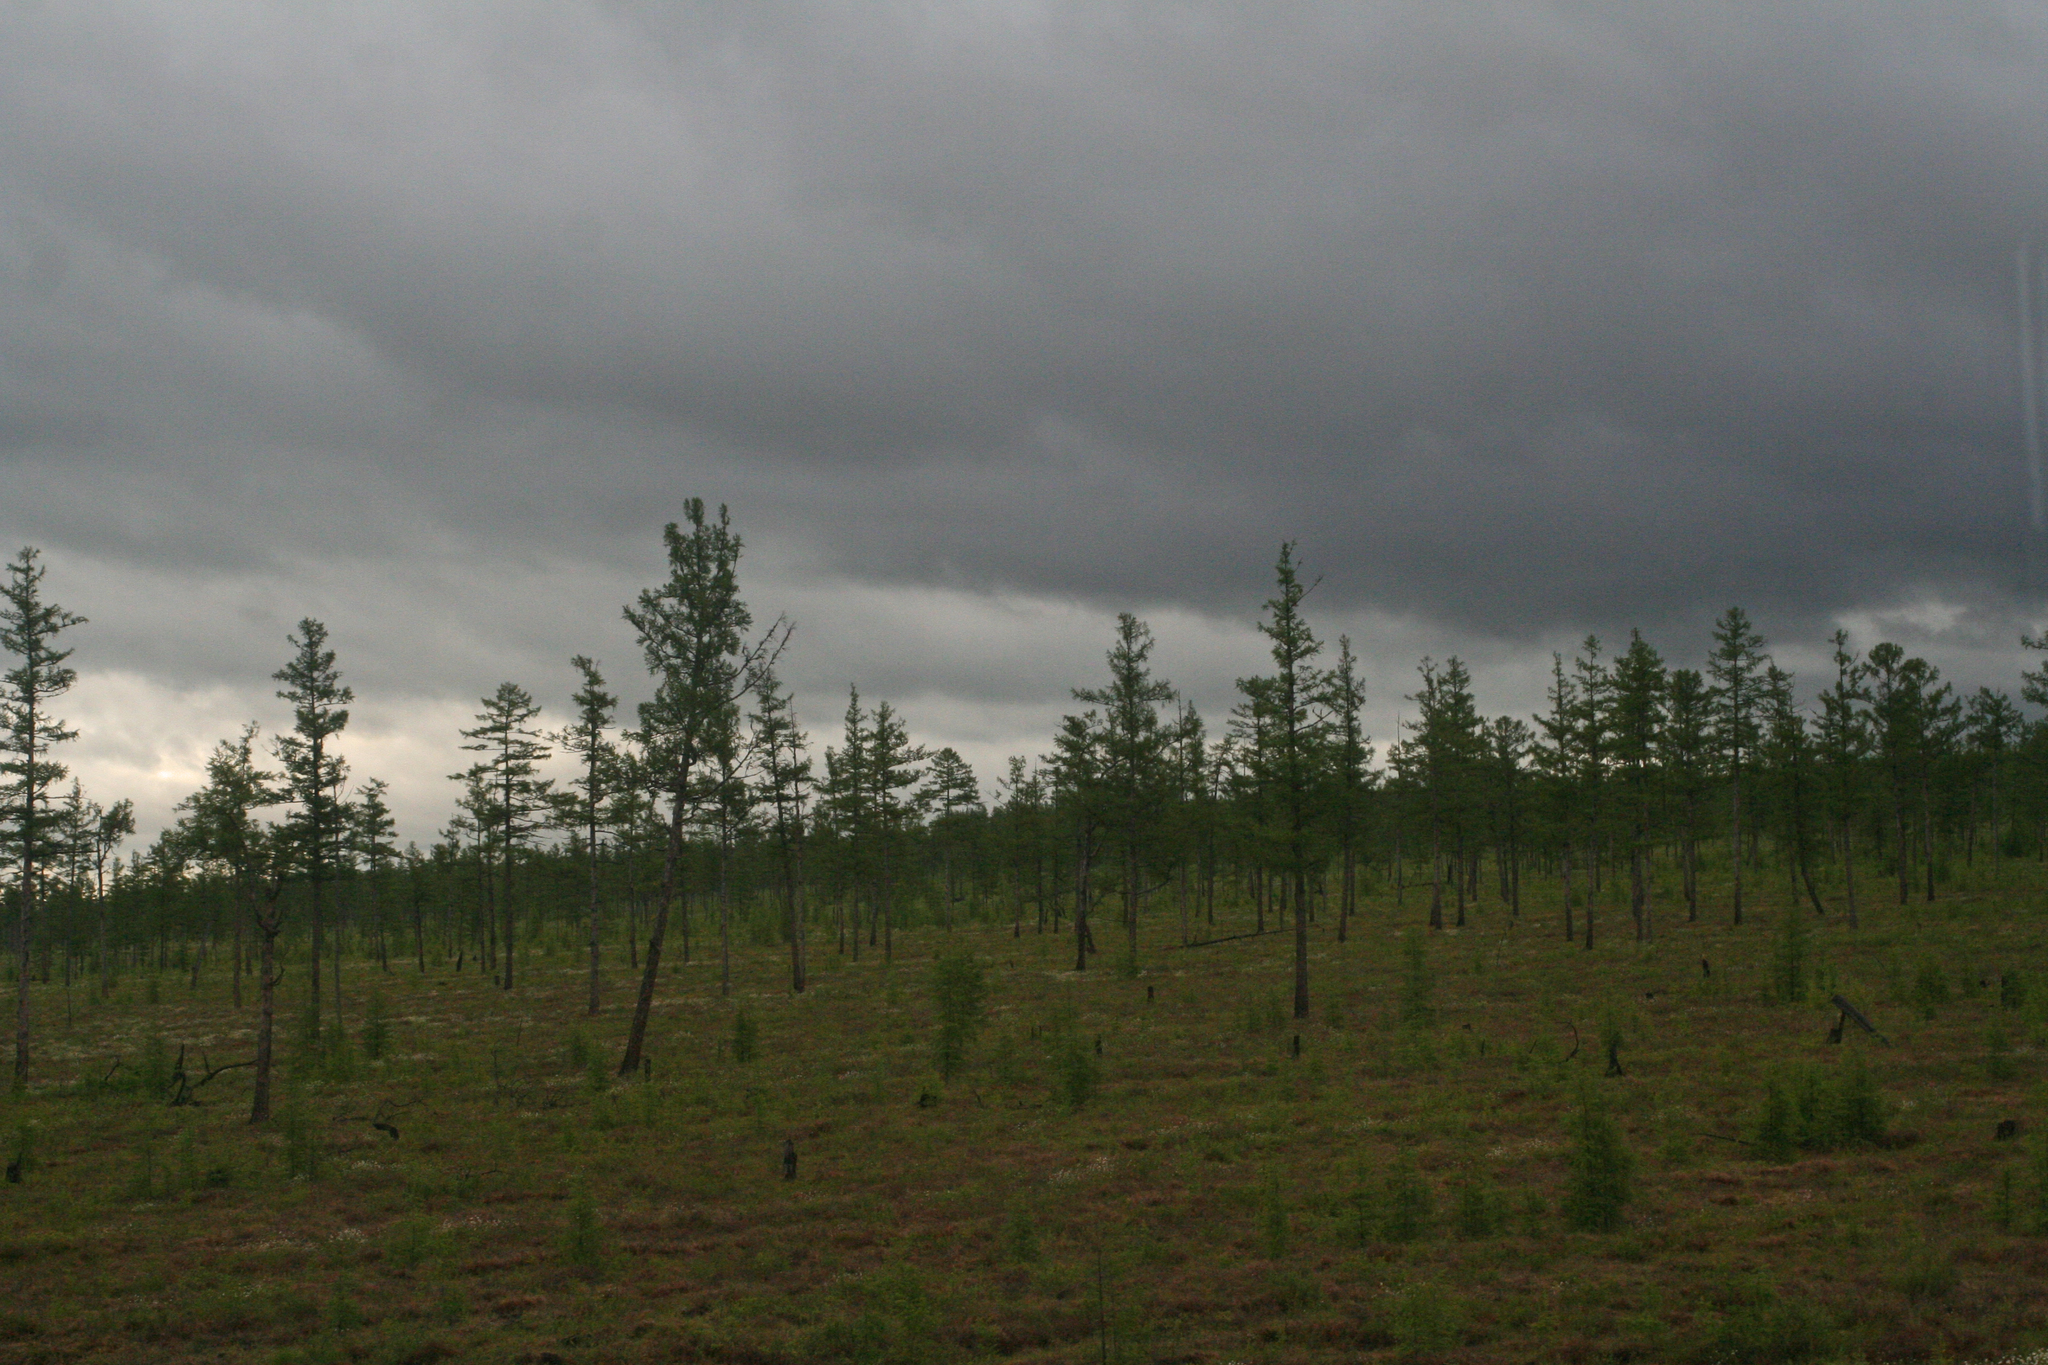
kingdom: Plantae
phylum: Tracheophyta
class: Pinopsida
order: Pinales
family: Pinaceae
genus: Larix
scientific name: Larix gmelinii
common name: Dahurian larch
